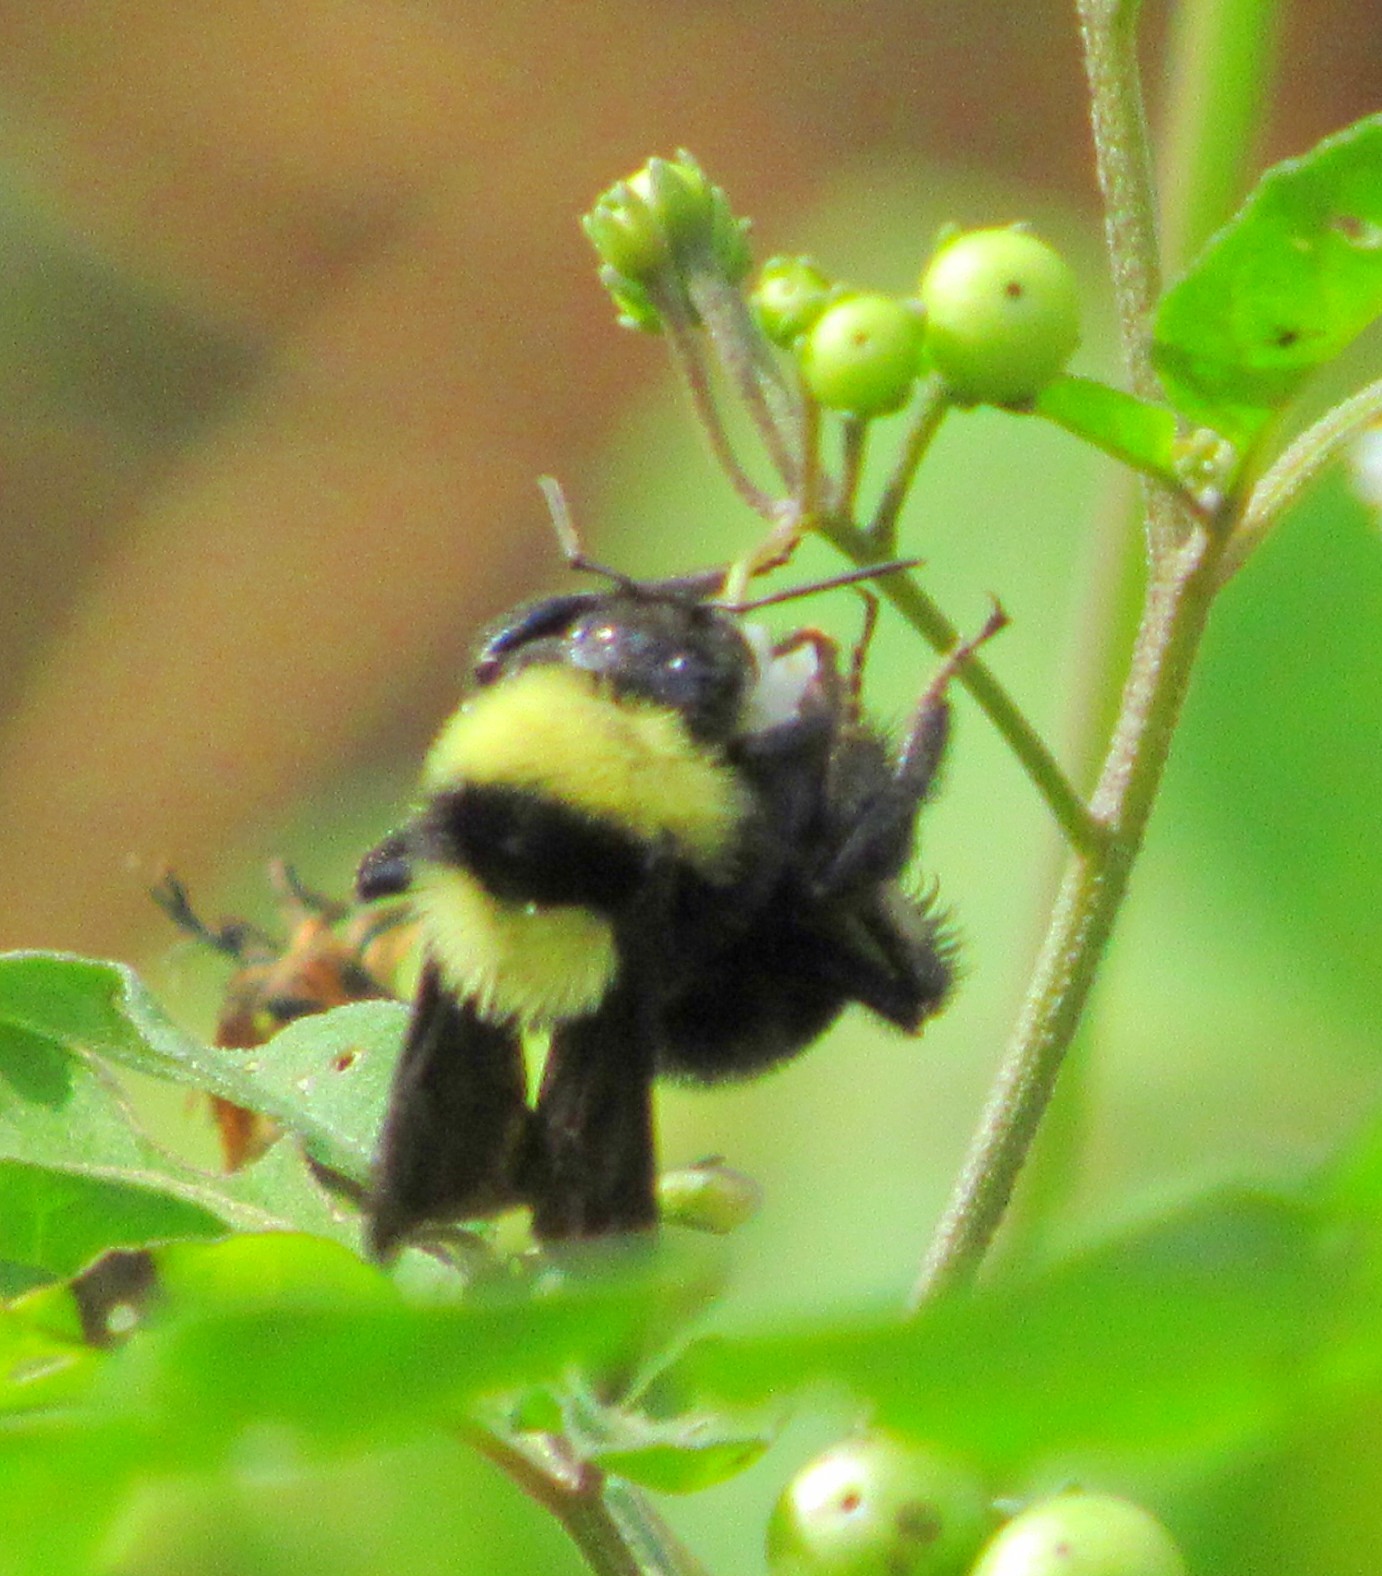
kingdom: Animalia
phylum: Arthropoda
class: Insecta
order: Hymenoptera
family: Apidae
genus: Bombus
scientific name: Bombus pauloensis
